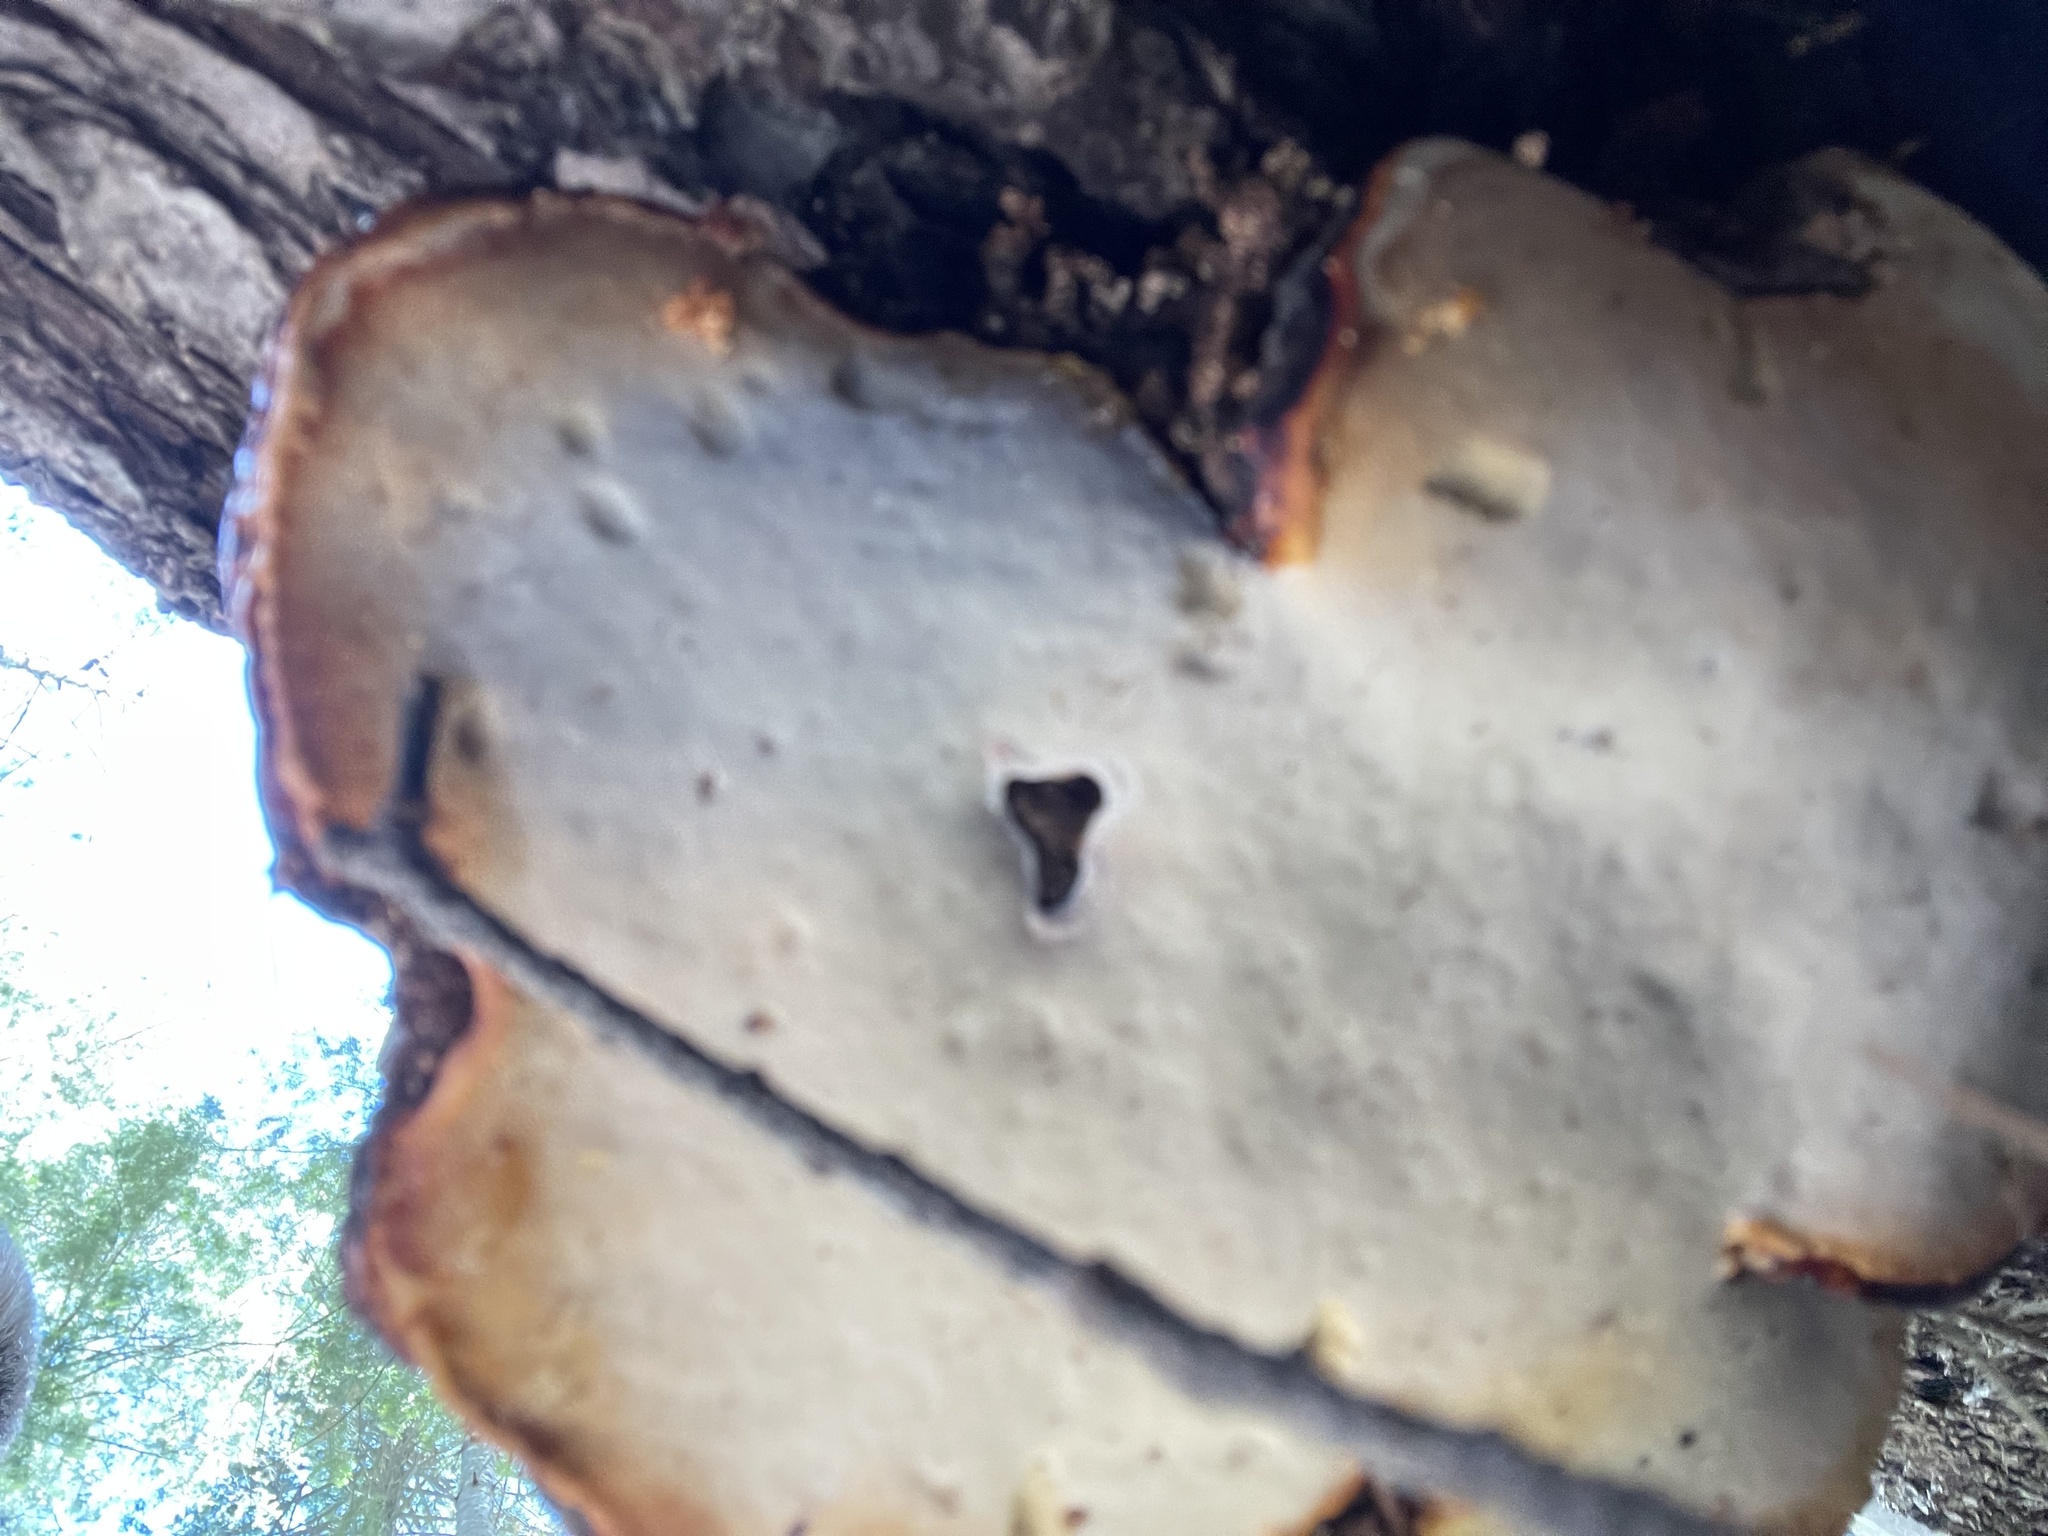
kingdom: Fungi
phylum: Basidiomycota
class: Agaricomycetes
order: Polyporales
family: Fomitopsidaceae
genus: Fomitopsis
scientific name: Fomitopsis schrenkii
